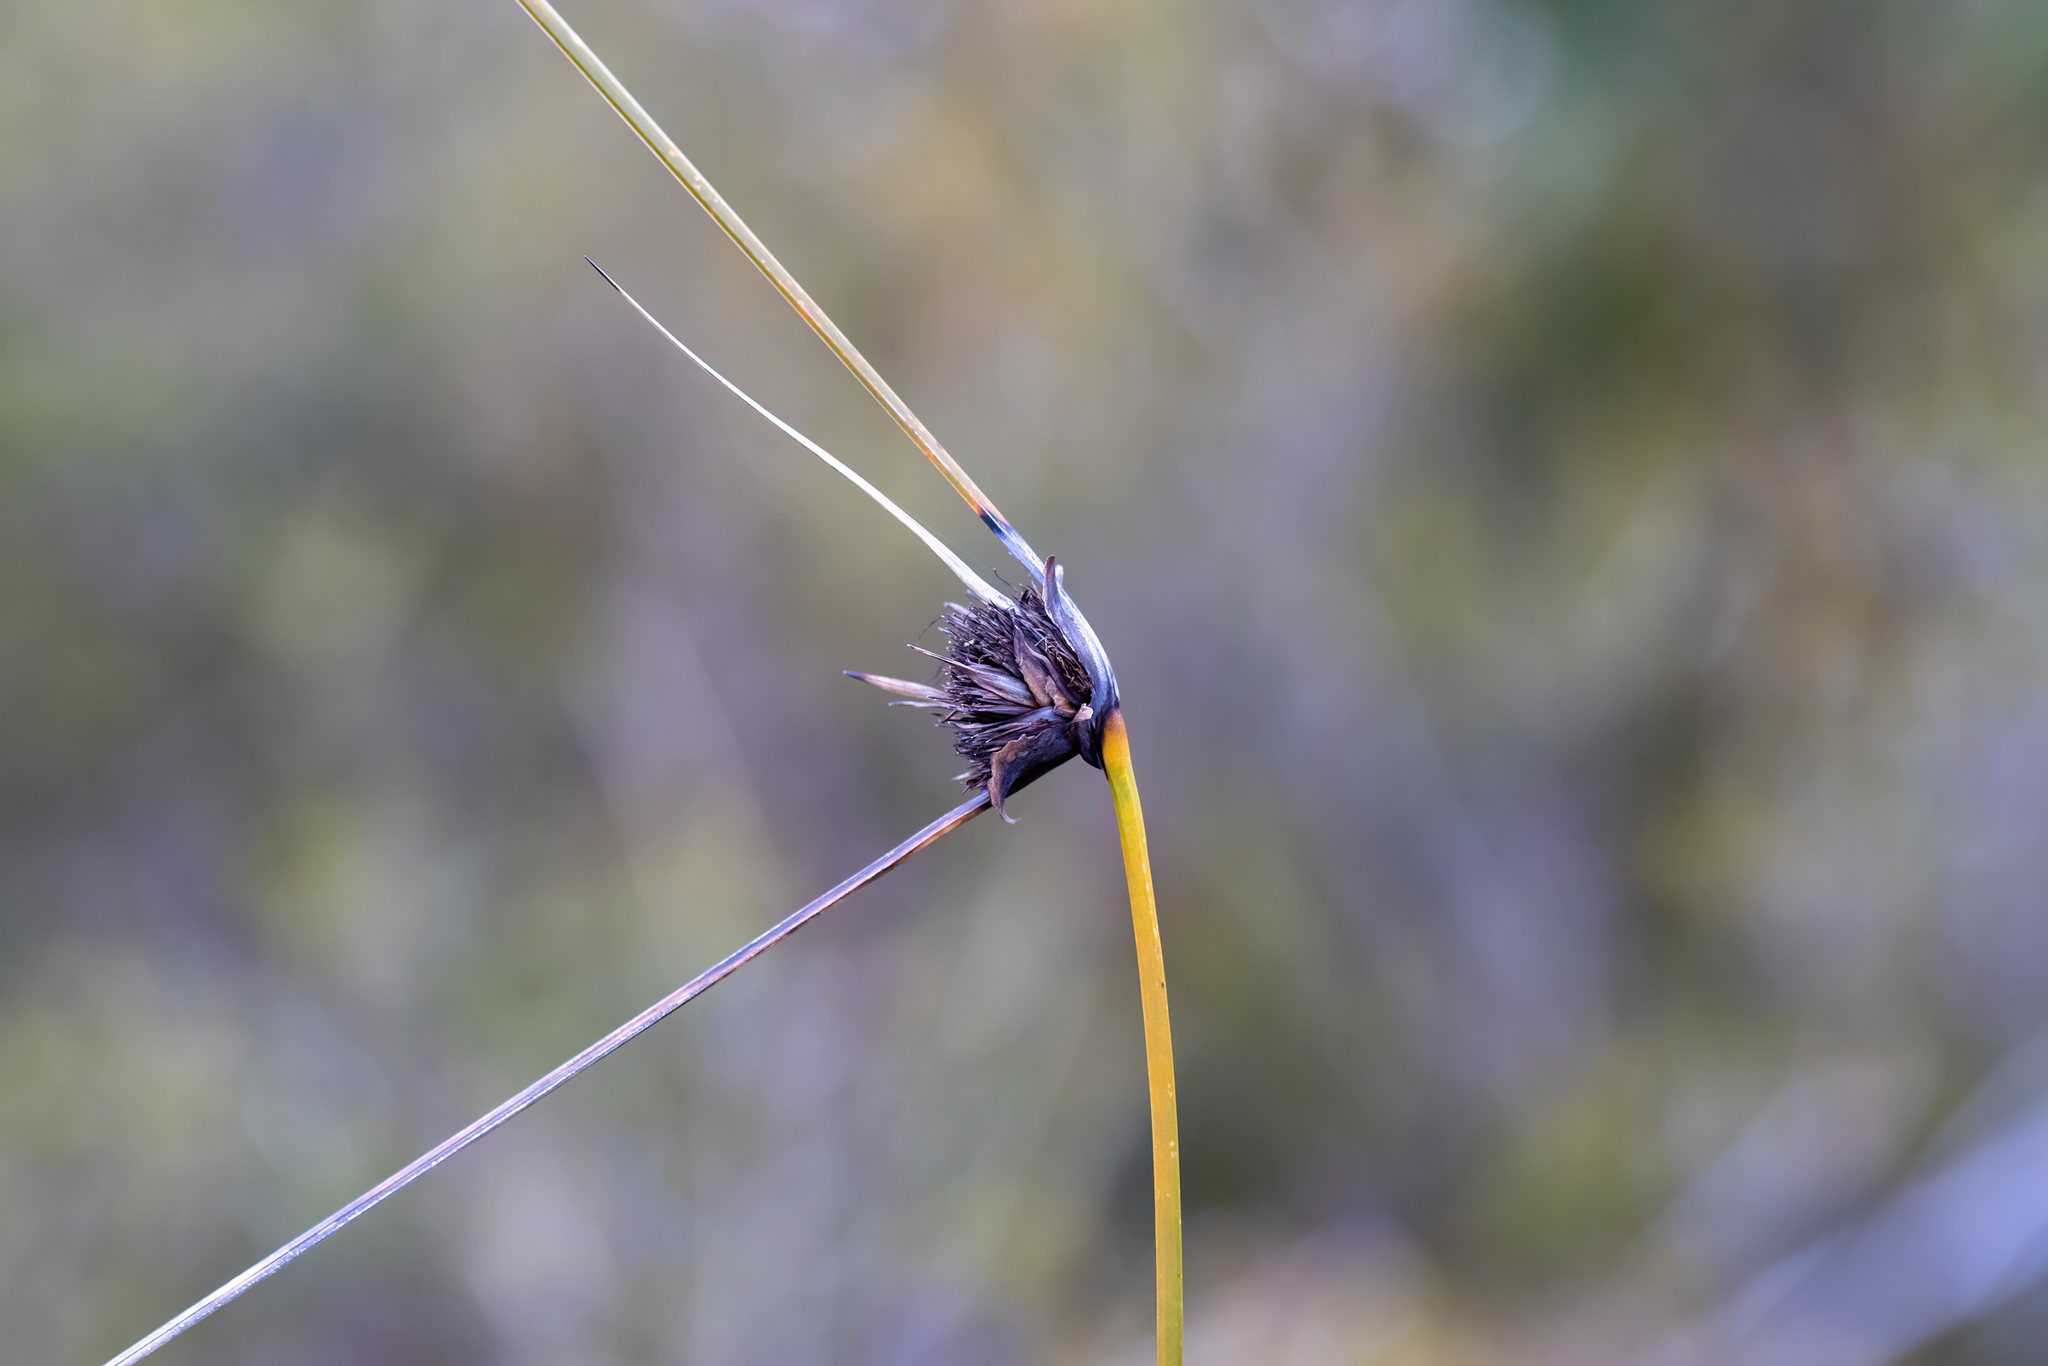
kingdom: Plantae
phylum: Tracheophyta
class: Liliopsida
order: Poales
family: Cyperaceae
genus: Mesomelaena
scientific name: Mesomelaena tetragona
